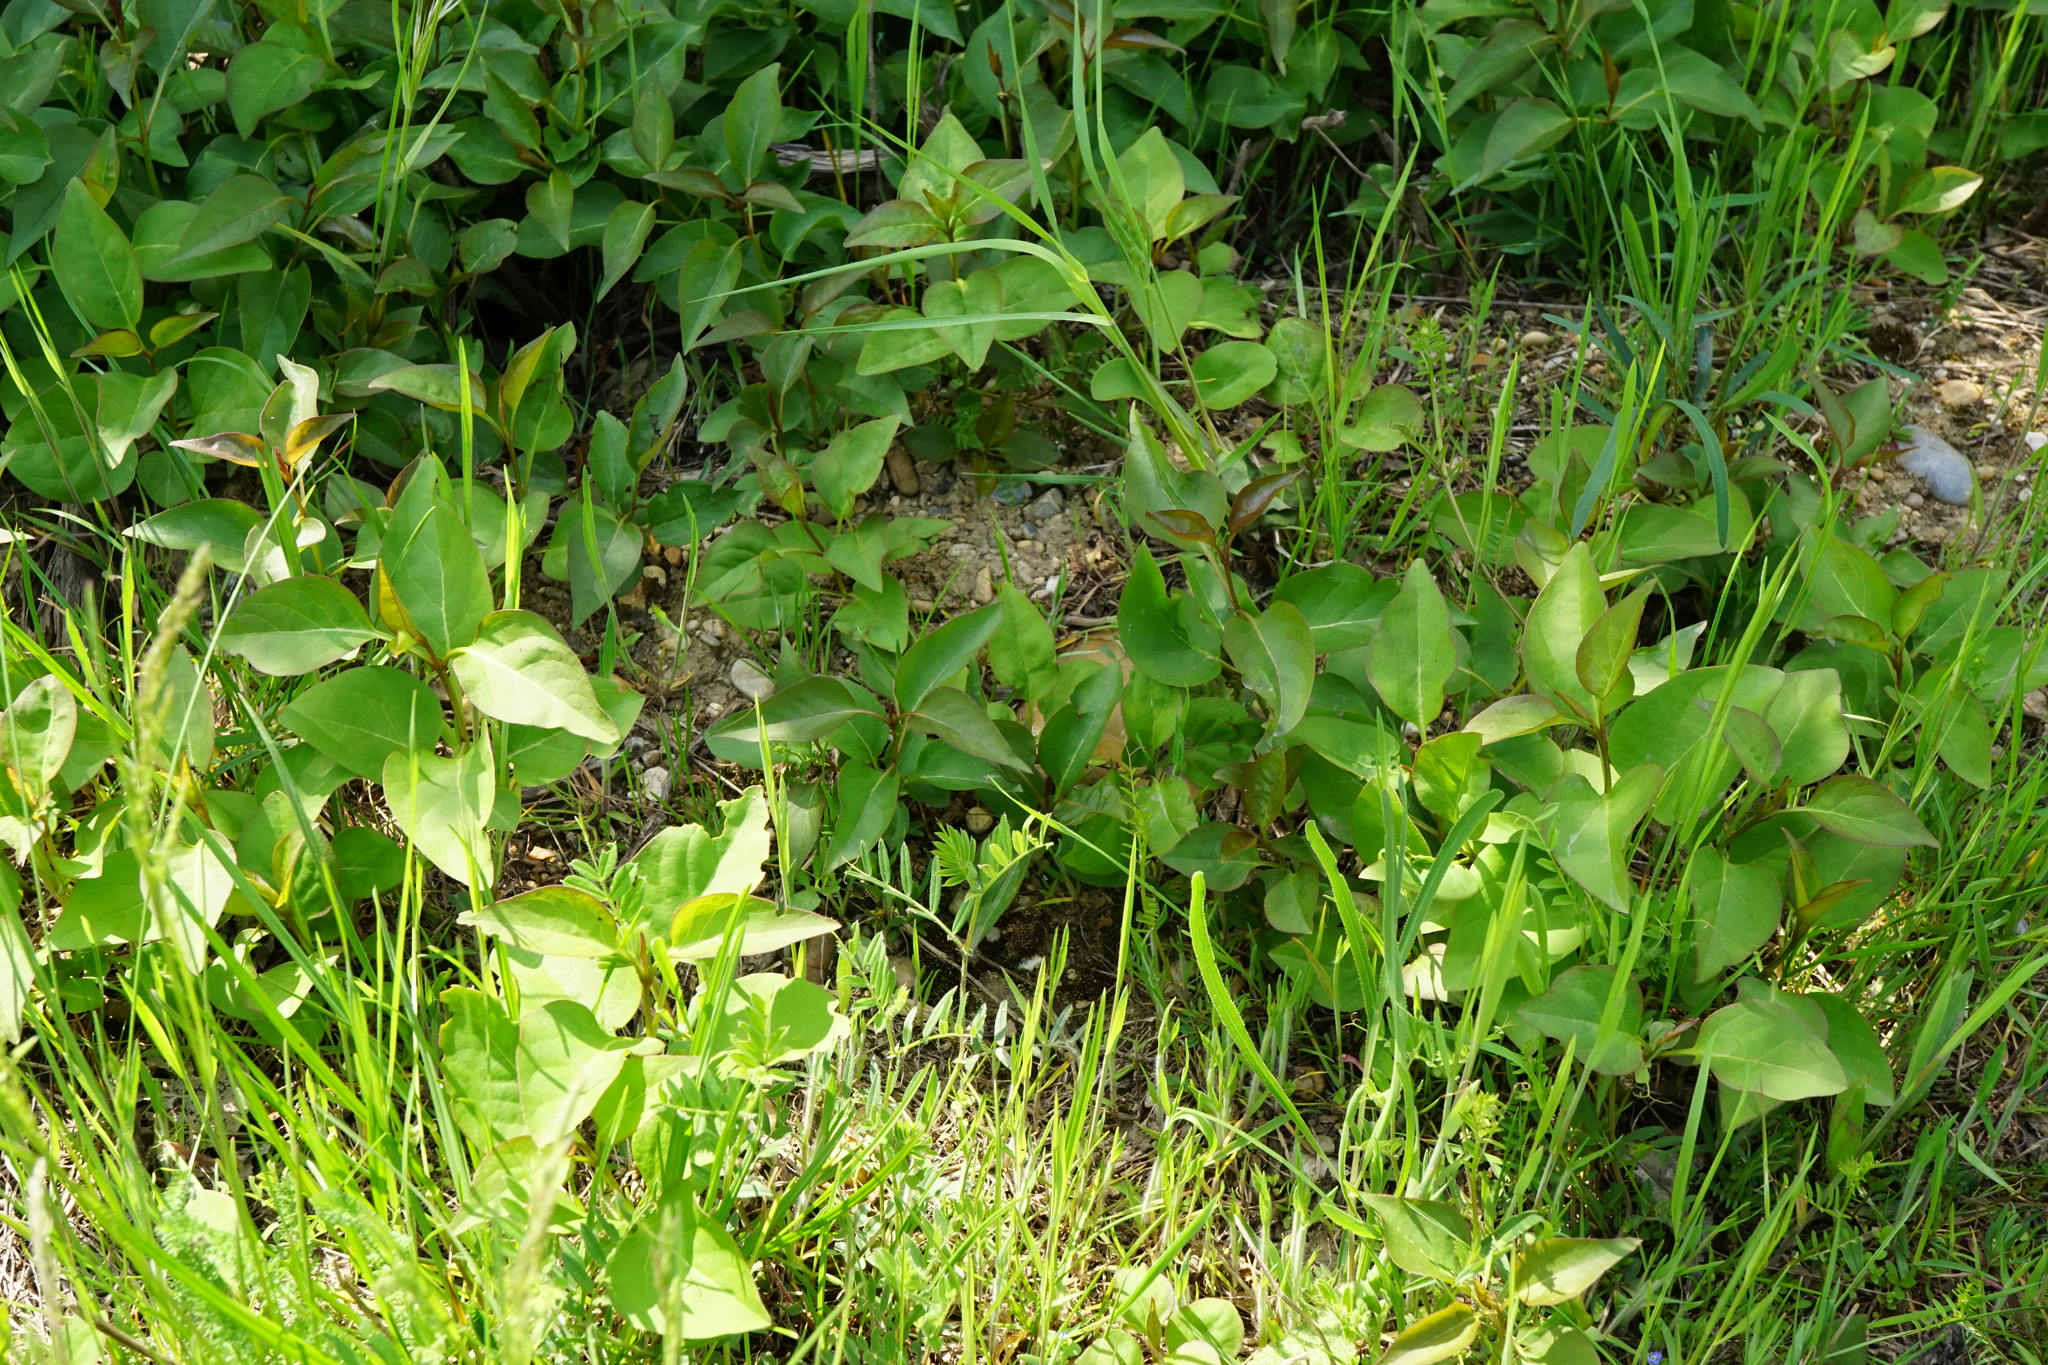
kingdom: Plantae
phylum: Tracheophyta
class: Magnoliopsida
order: Lamiales
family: Oleaceae
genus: Syringa
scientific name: Syringa vulgaris
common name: Common lilac
